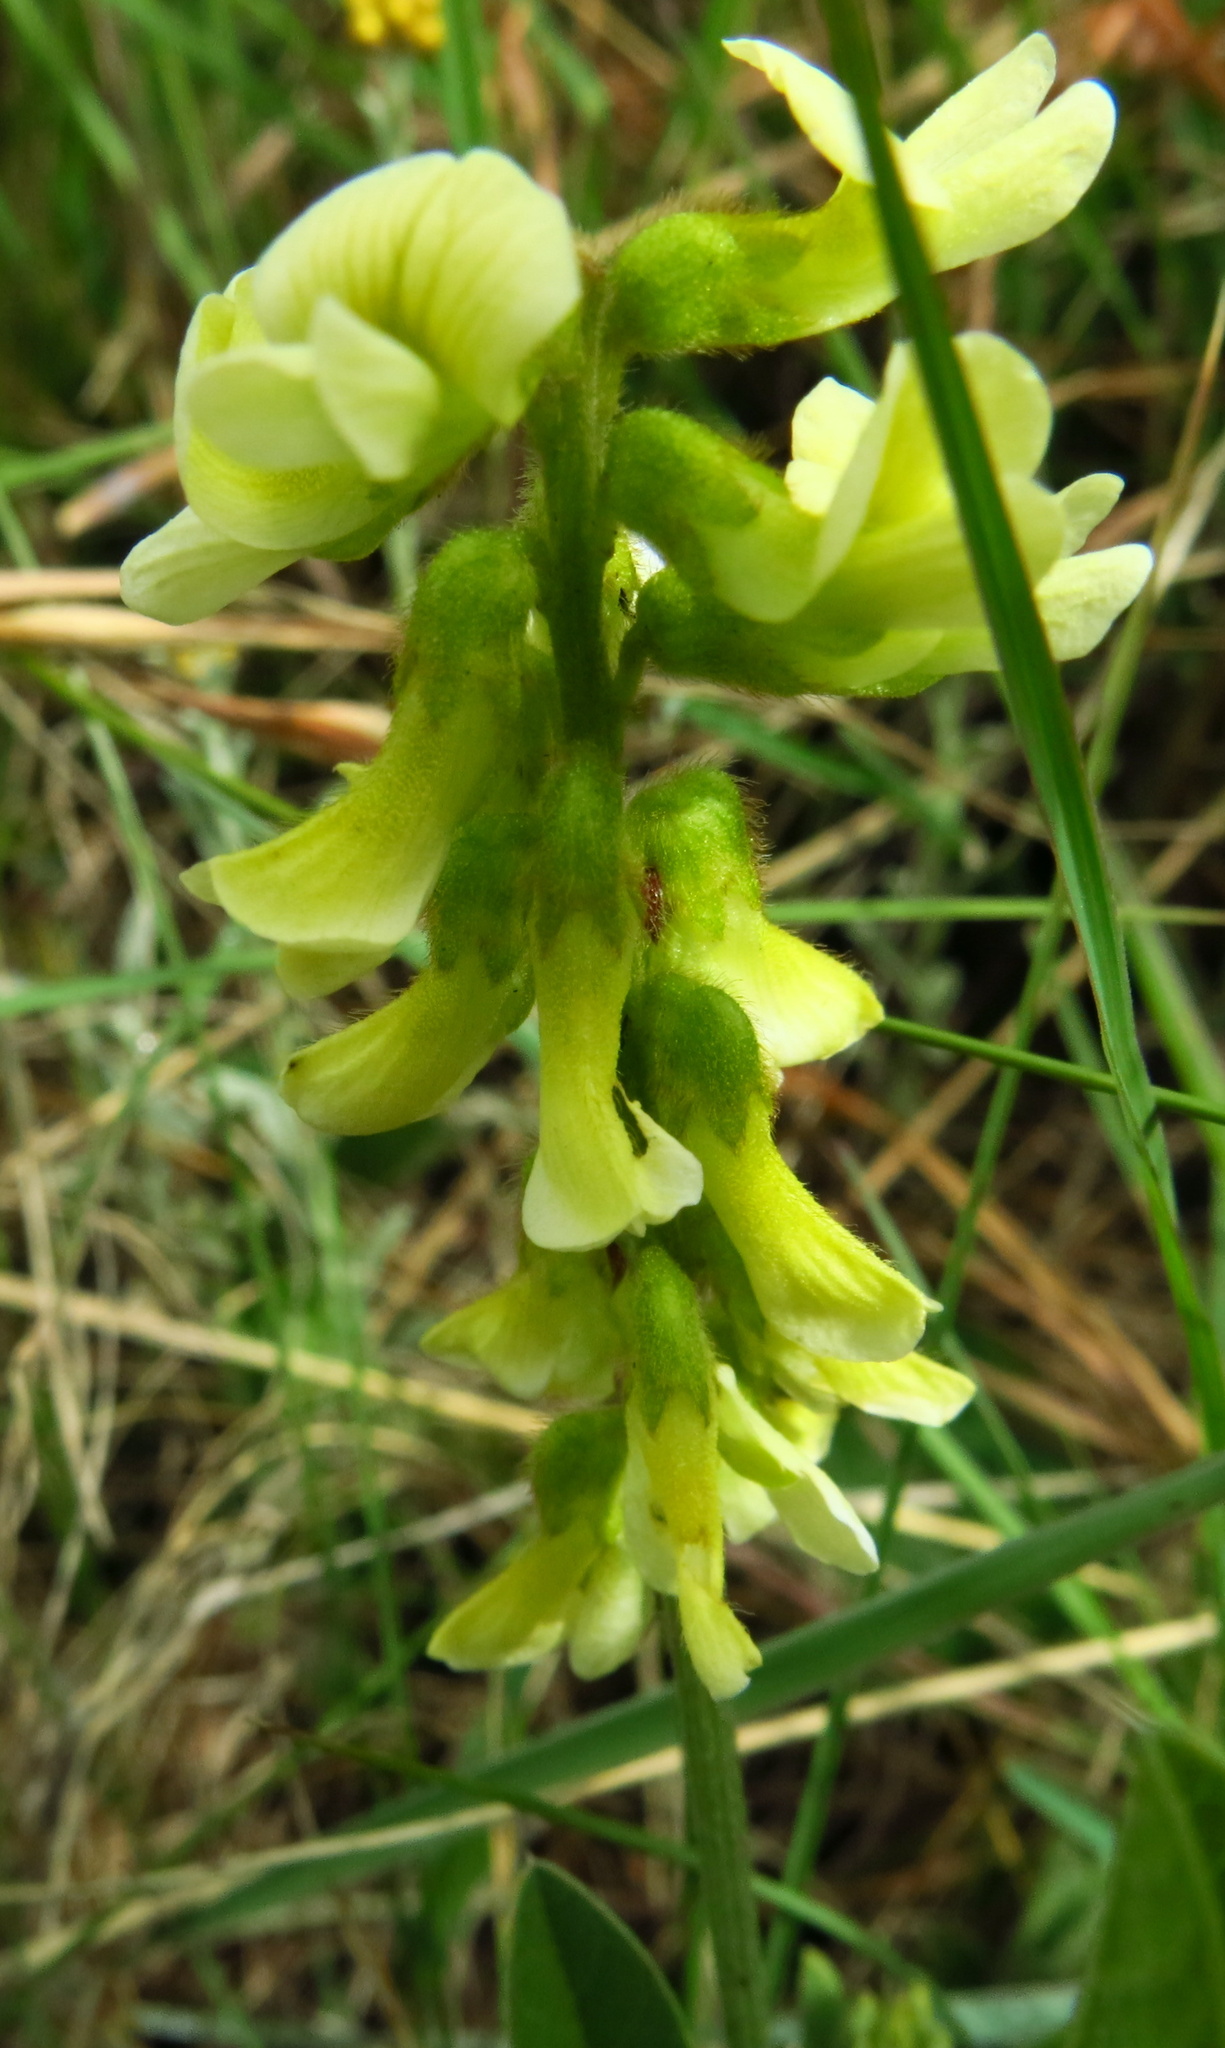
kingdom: Plantae
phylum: Tracheophyta
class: Magnoliopsida
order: Fabales
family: Fabaceae
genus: Eriosema
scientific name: Eriosema kraussianum
